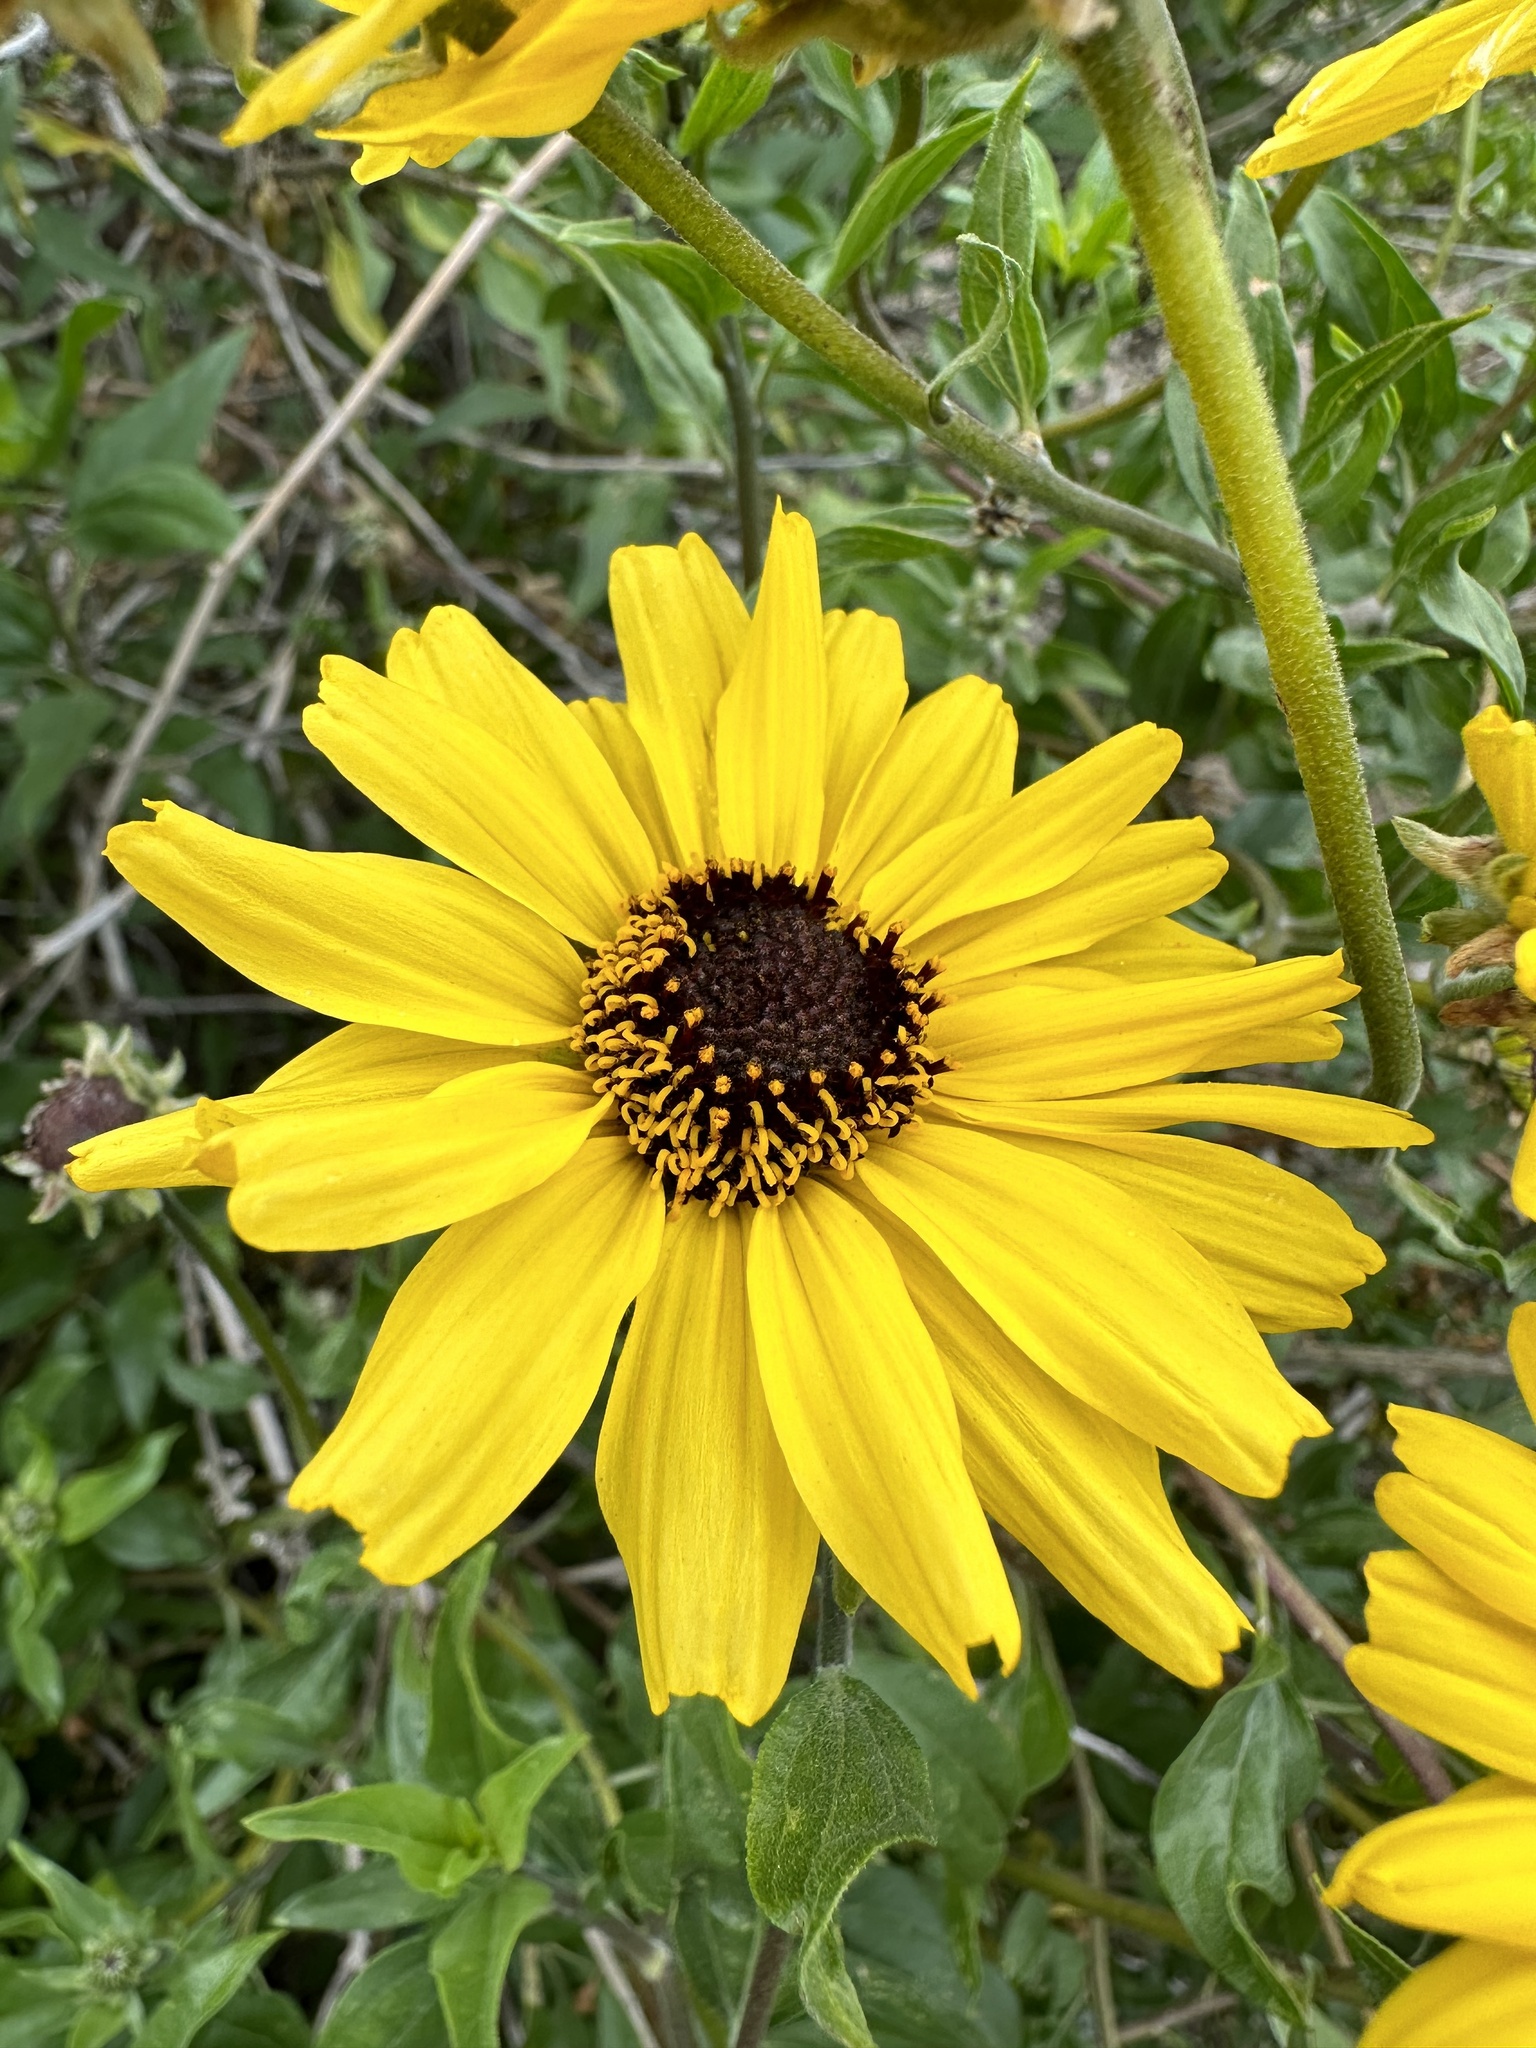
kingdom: Plantae
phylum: Tracheophyta
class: Magnoliopsida
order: Asterales
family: Asteraceae
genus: Encelia
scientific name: Encelia californica
